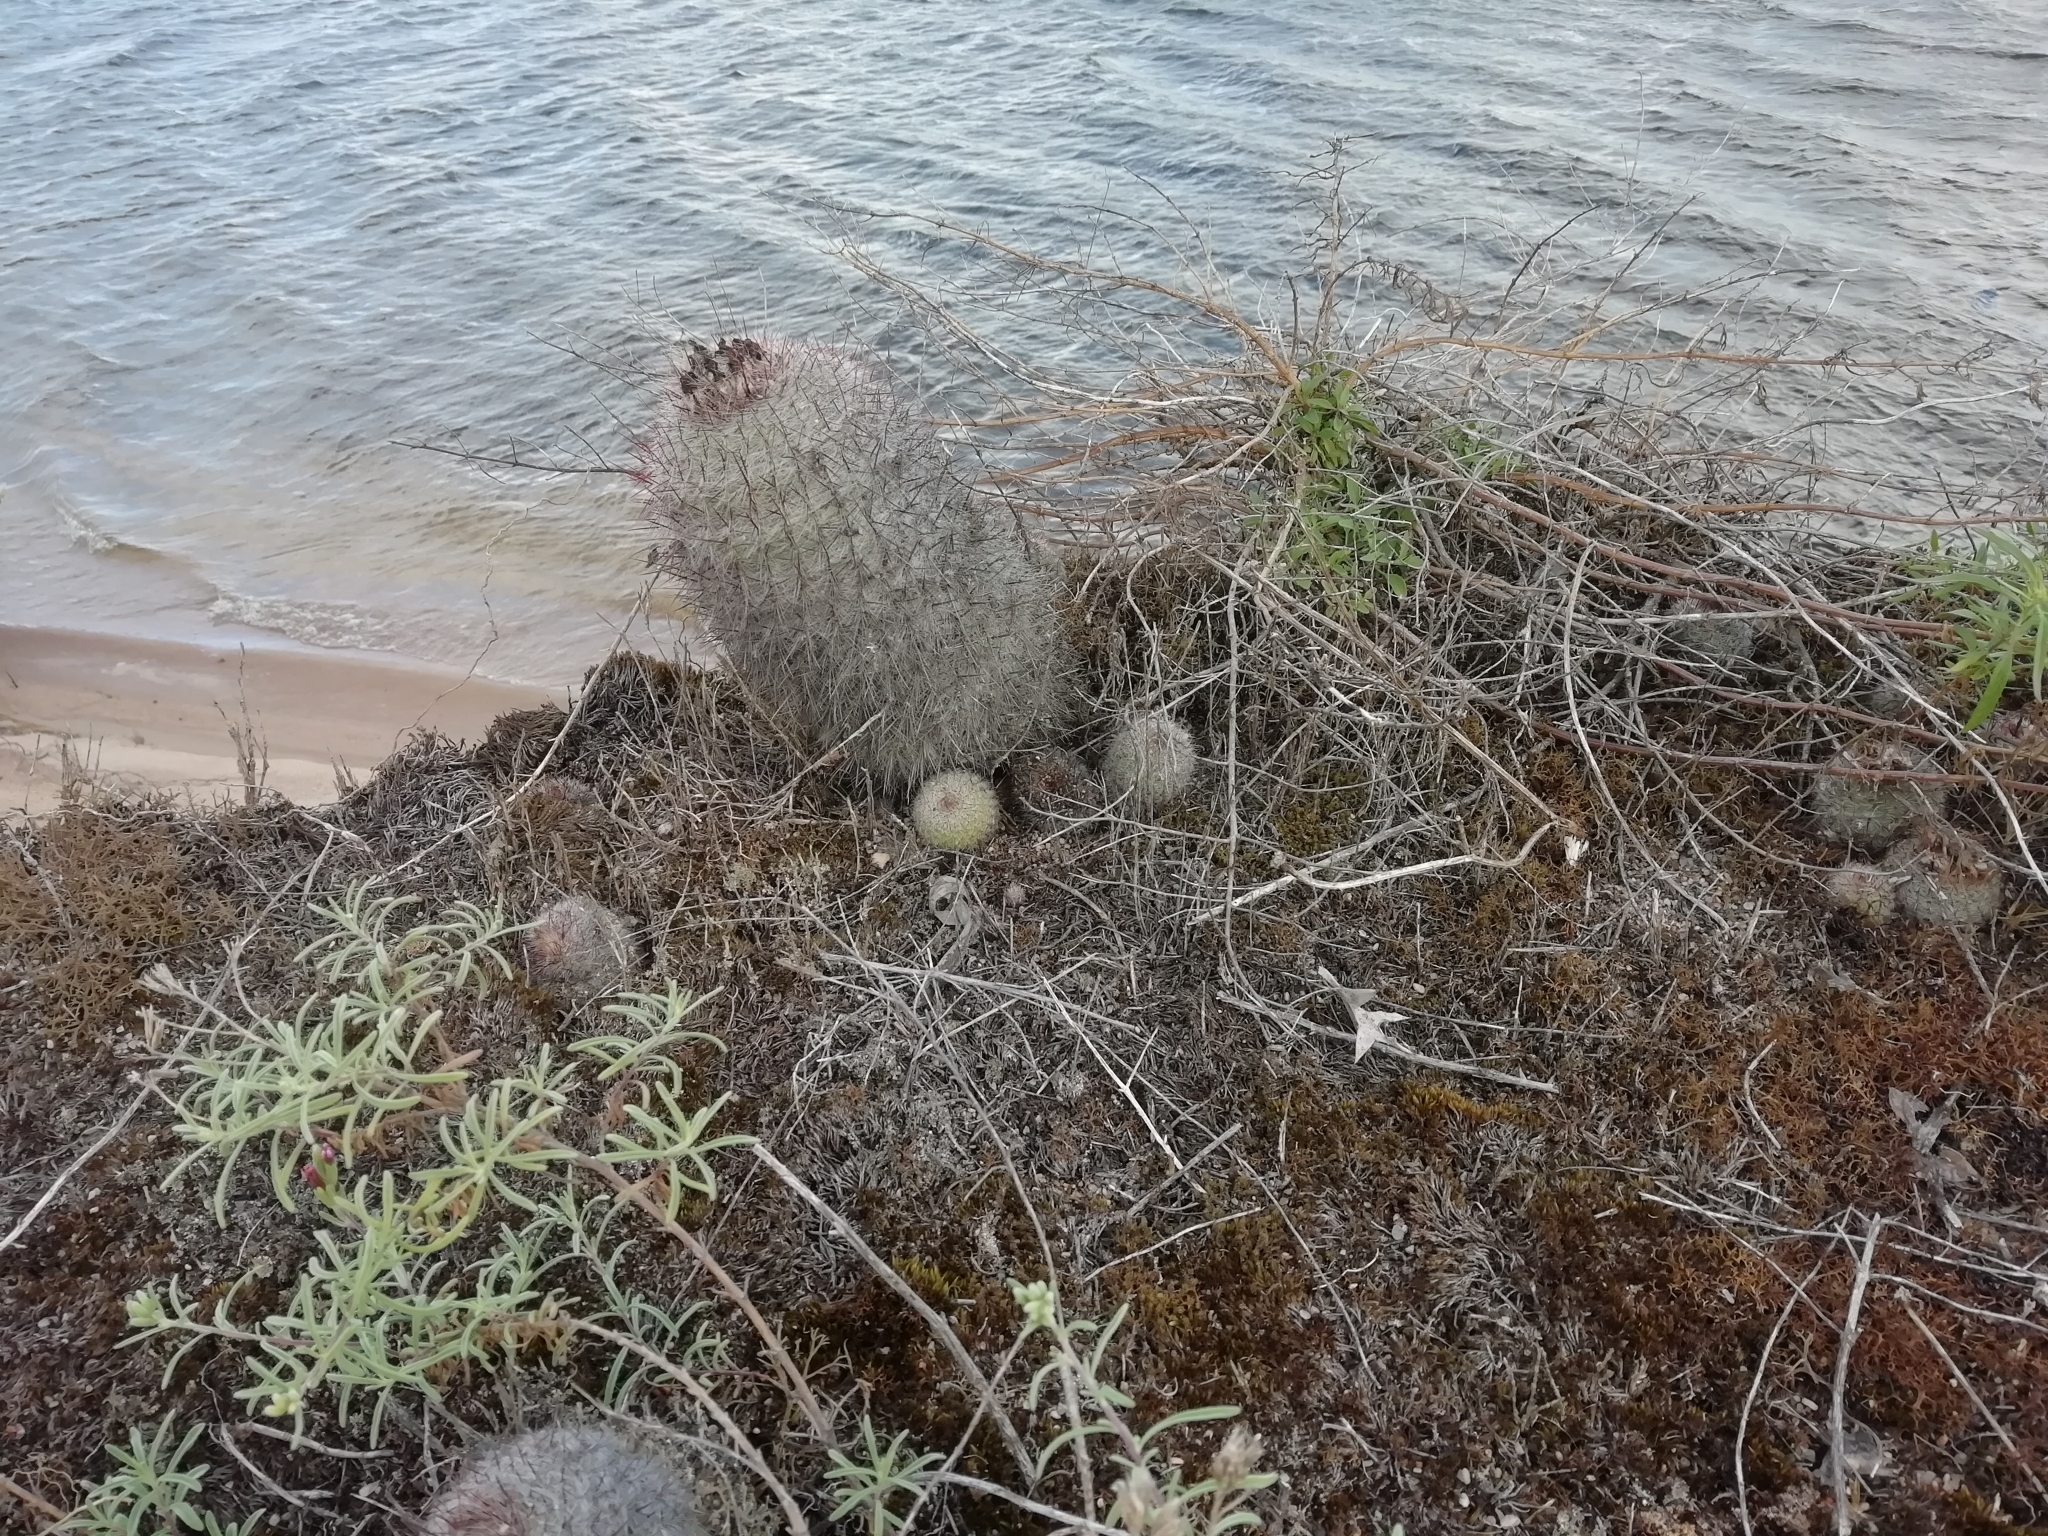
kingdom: Plantae
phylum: Tracheophyta
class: Magnoliopsida
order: Caryophyllales
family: Cactaceae
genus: Parodia
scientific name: Parodia scopa
